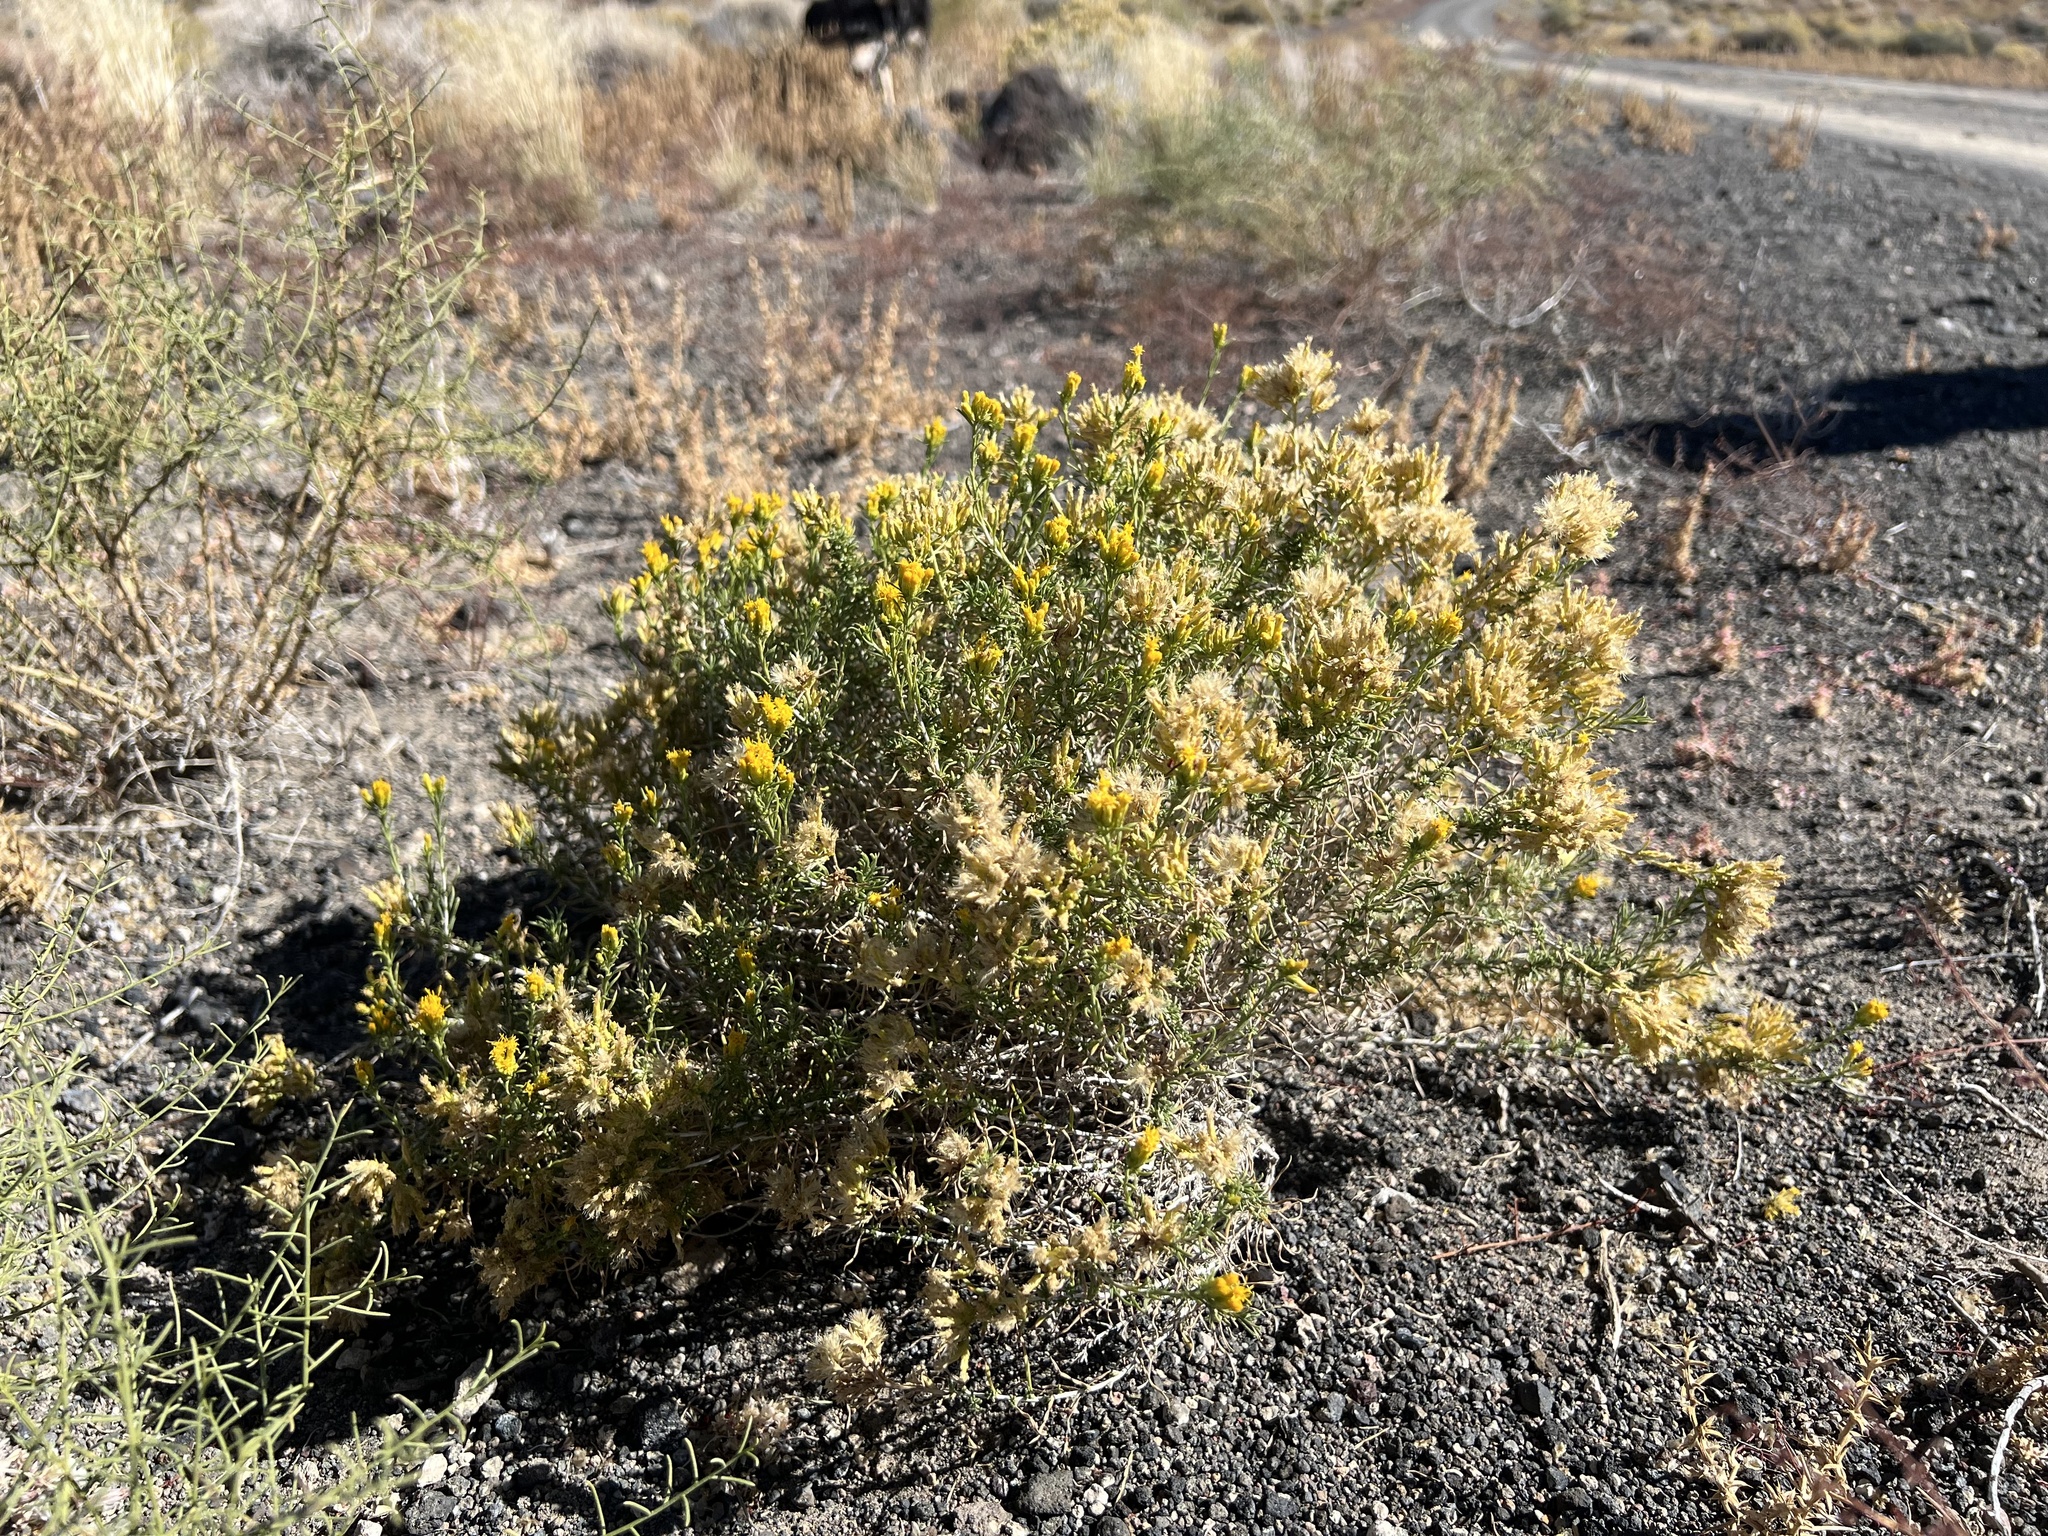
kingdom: Plantae
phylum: Tracheophyta
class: Magnoliopsida
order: Asterales
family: Asteraceae
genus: Chrysothamnus
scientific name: Chrysothamnus greenei
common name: Greene's rabbitbrush
